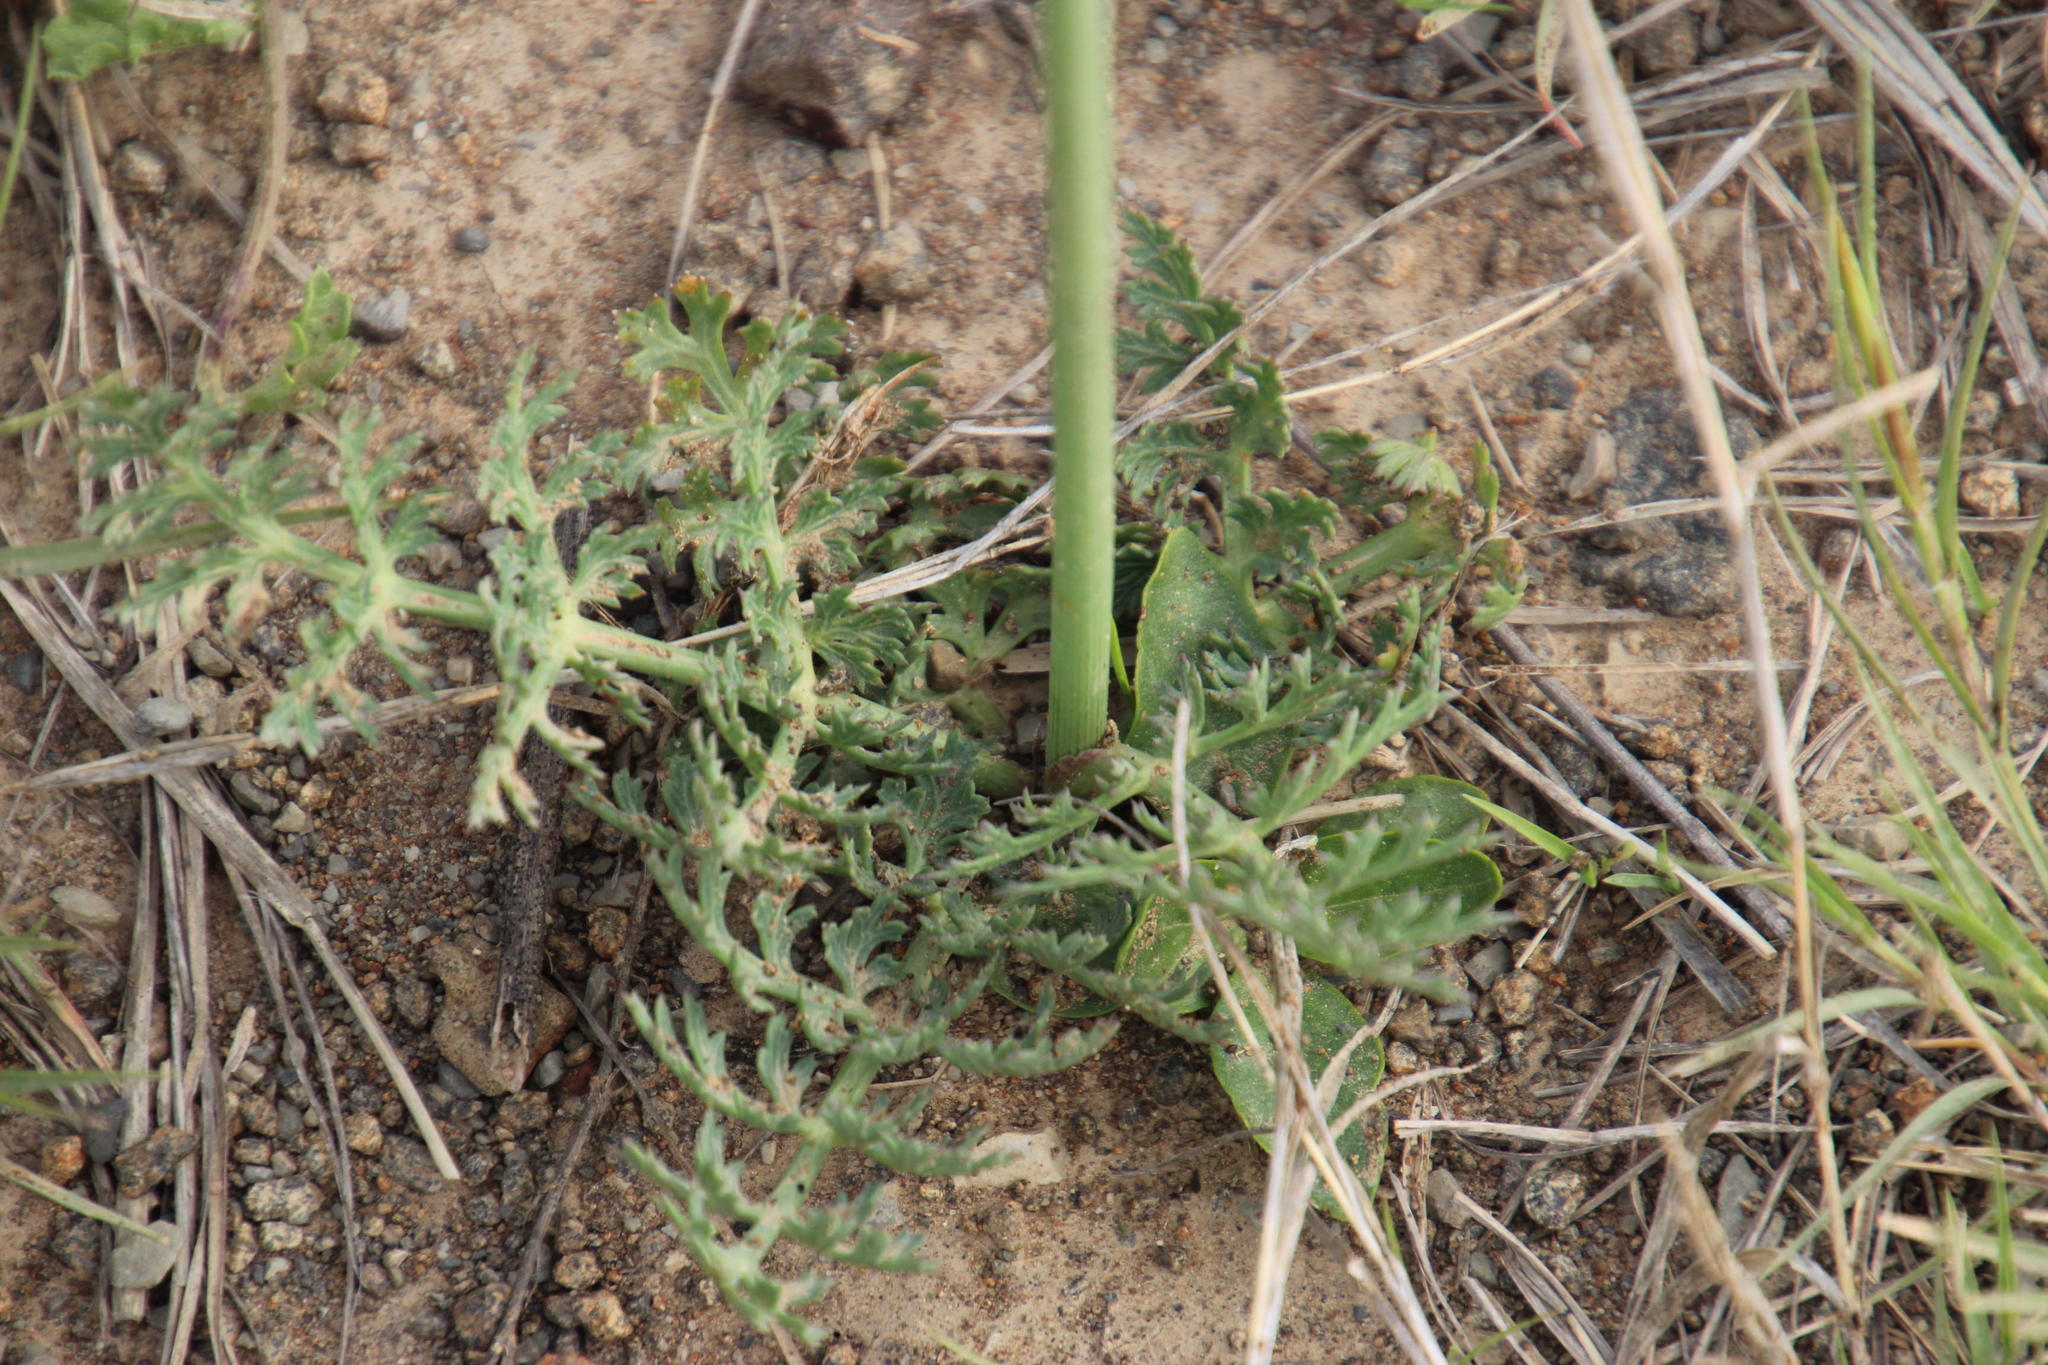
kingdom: Plantae
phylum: Tracheophyta
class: Magnoliopsida
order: Apiales
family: Apiaceae
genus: Afrosciadium
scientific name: Afrosciadium magalismontanum
